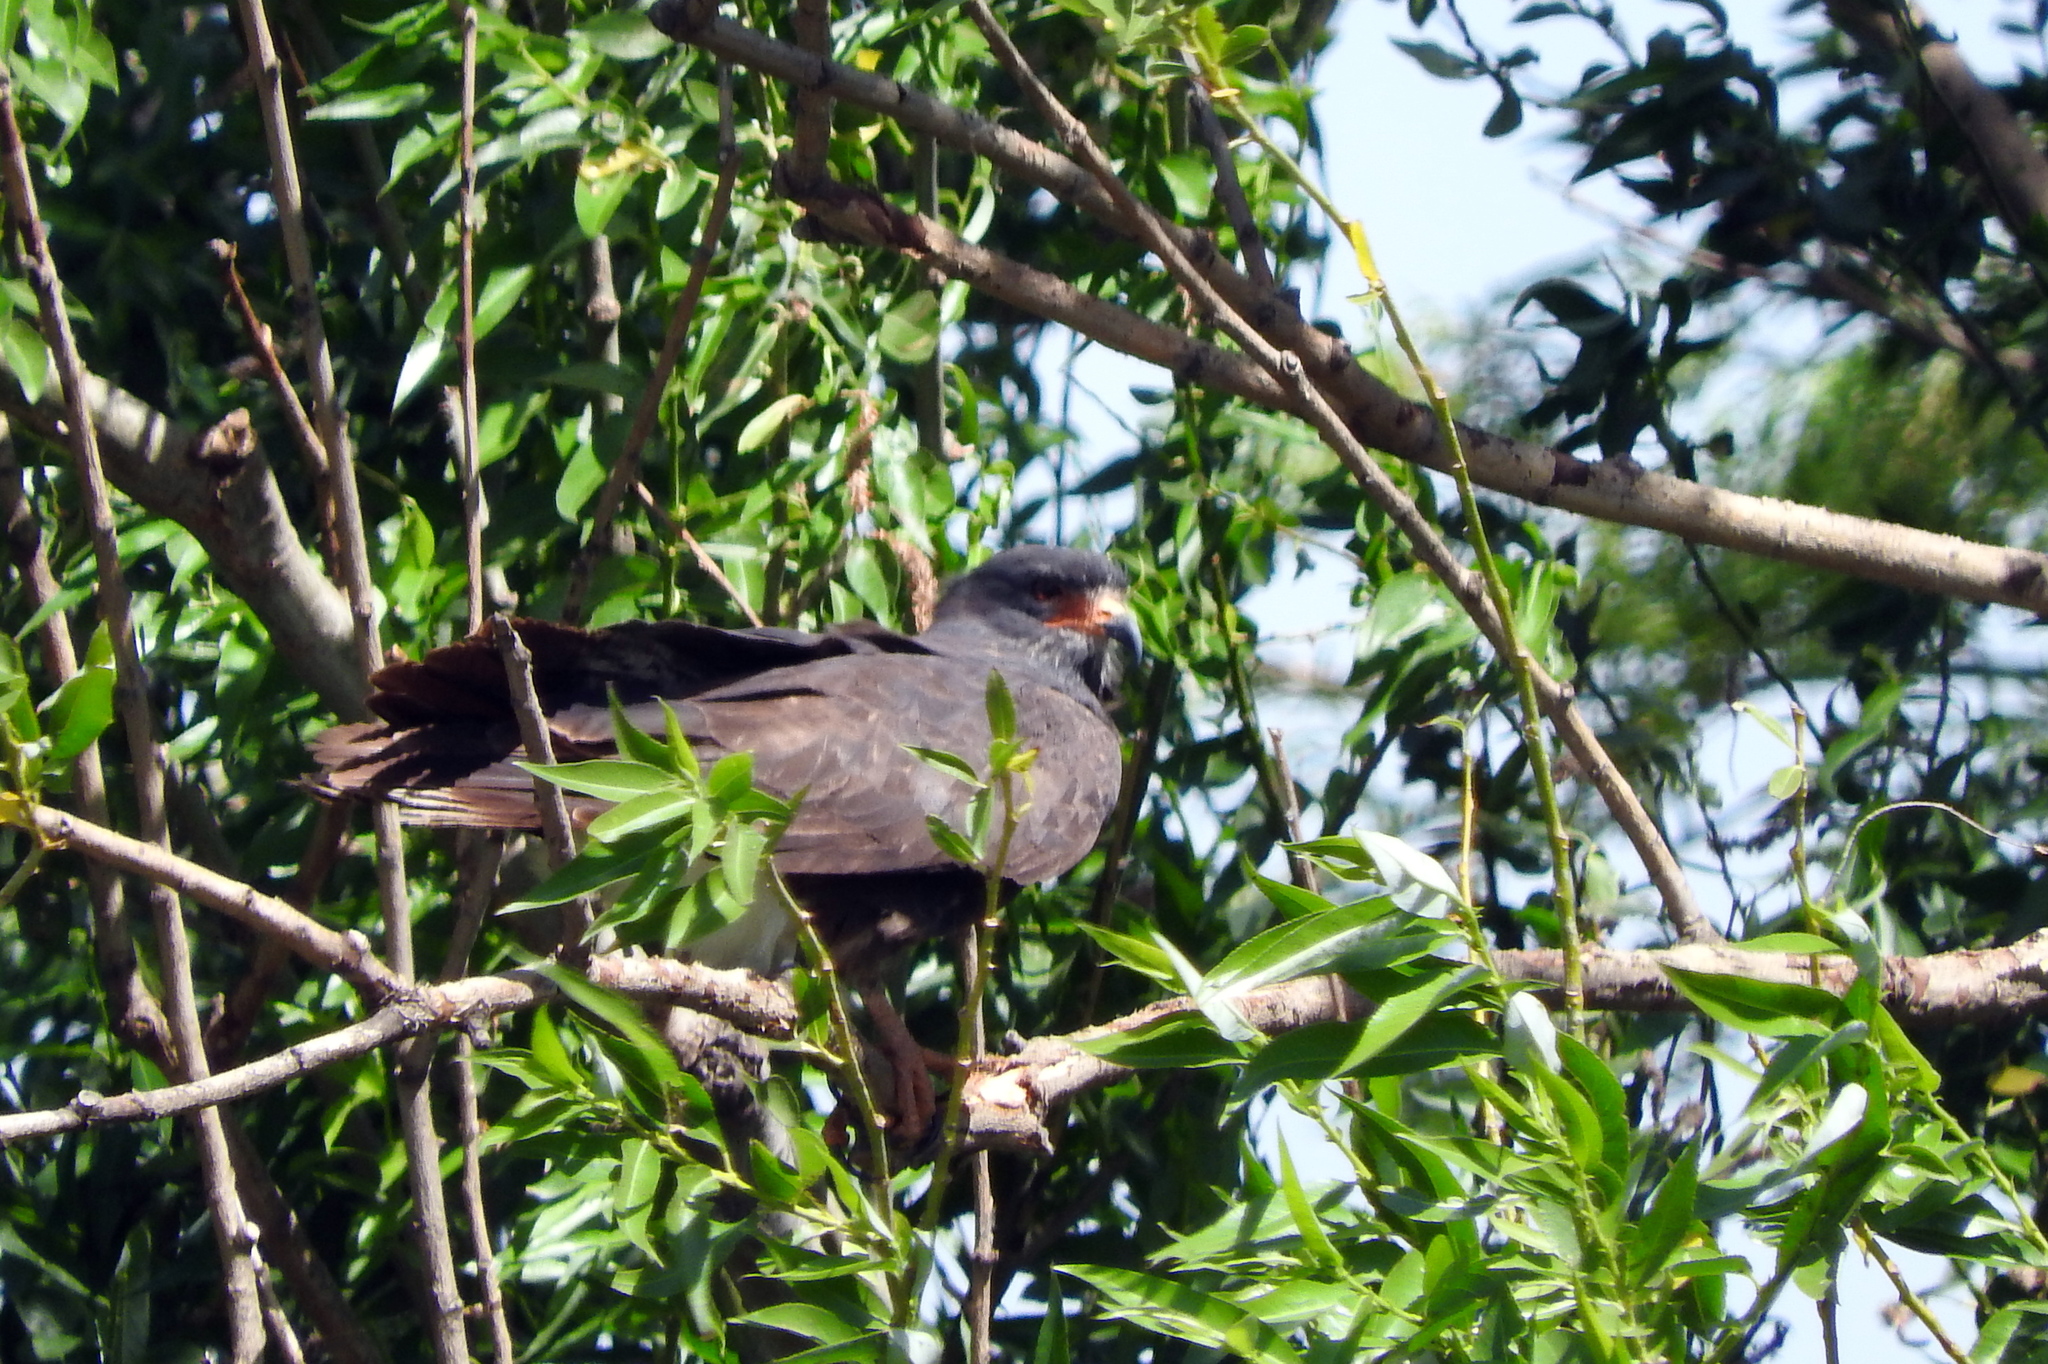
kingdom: Animalia
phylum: Chordata
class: Aves
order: Accipitriformes
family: Accipitridae
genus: Rostrhamus
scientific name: Rostrhamus sociabilis
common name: Snail kite
